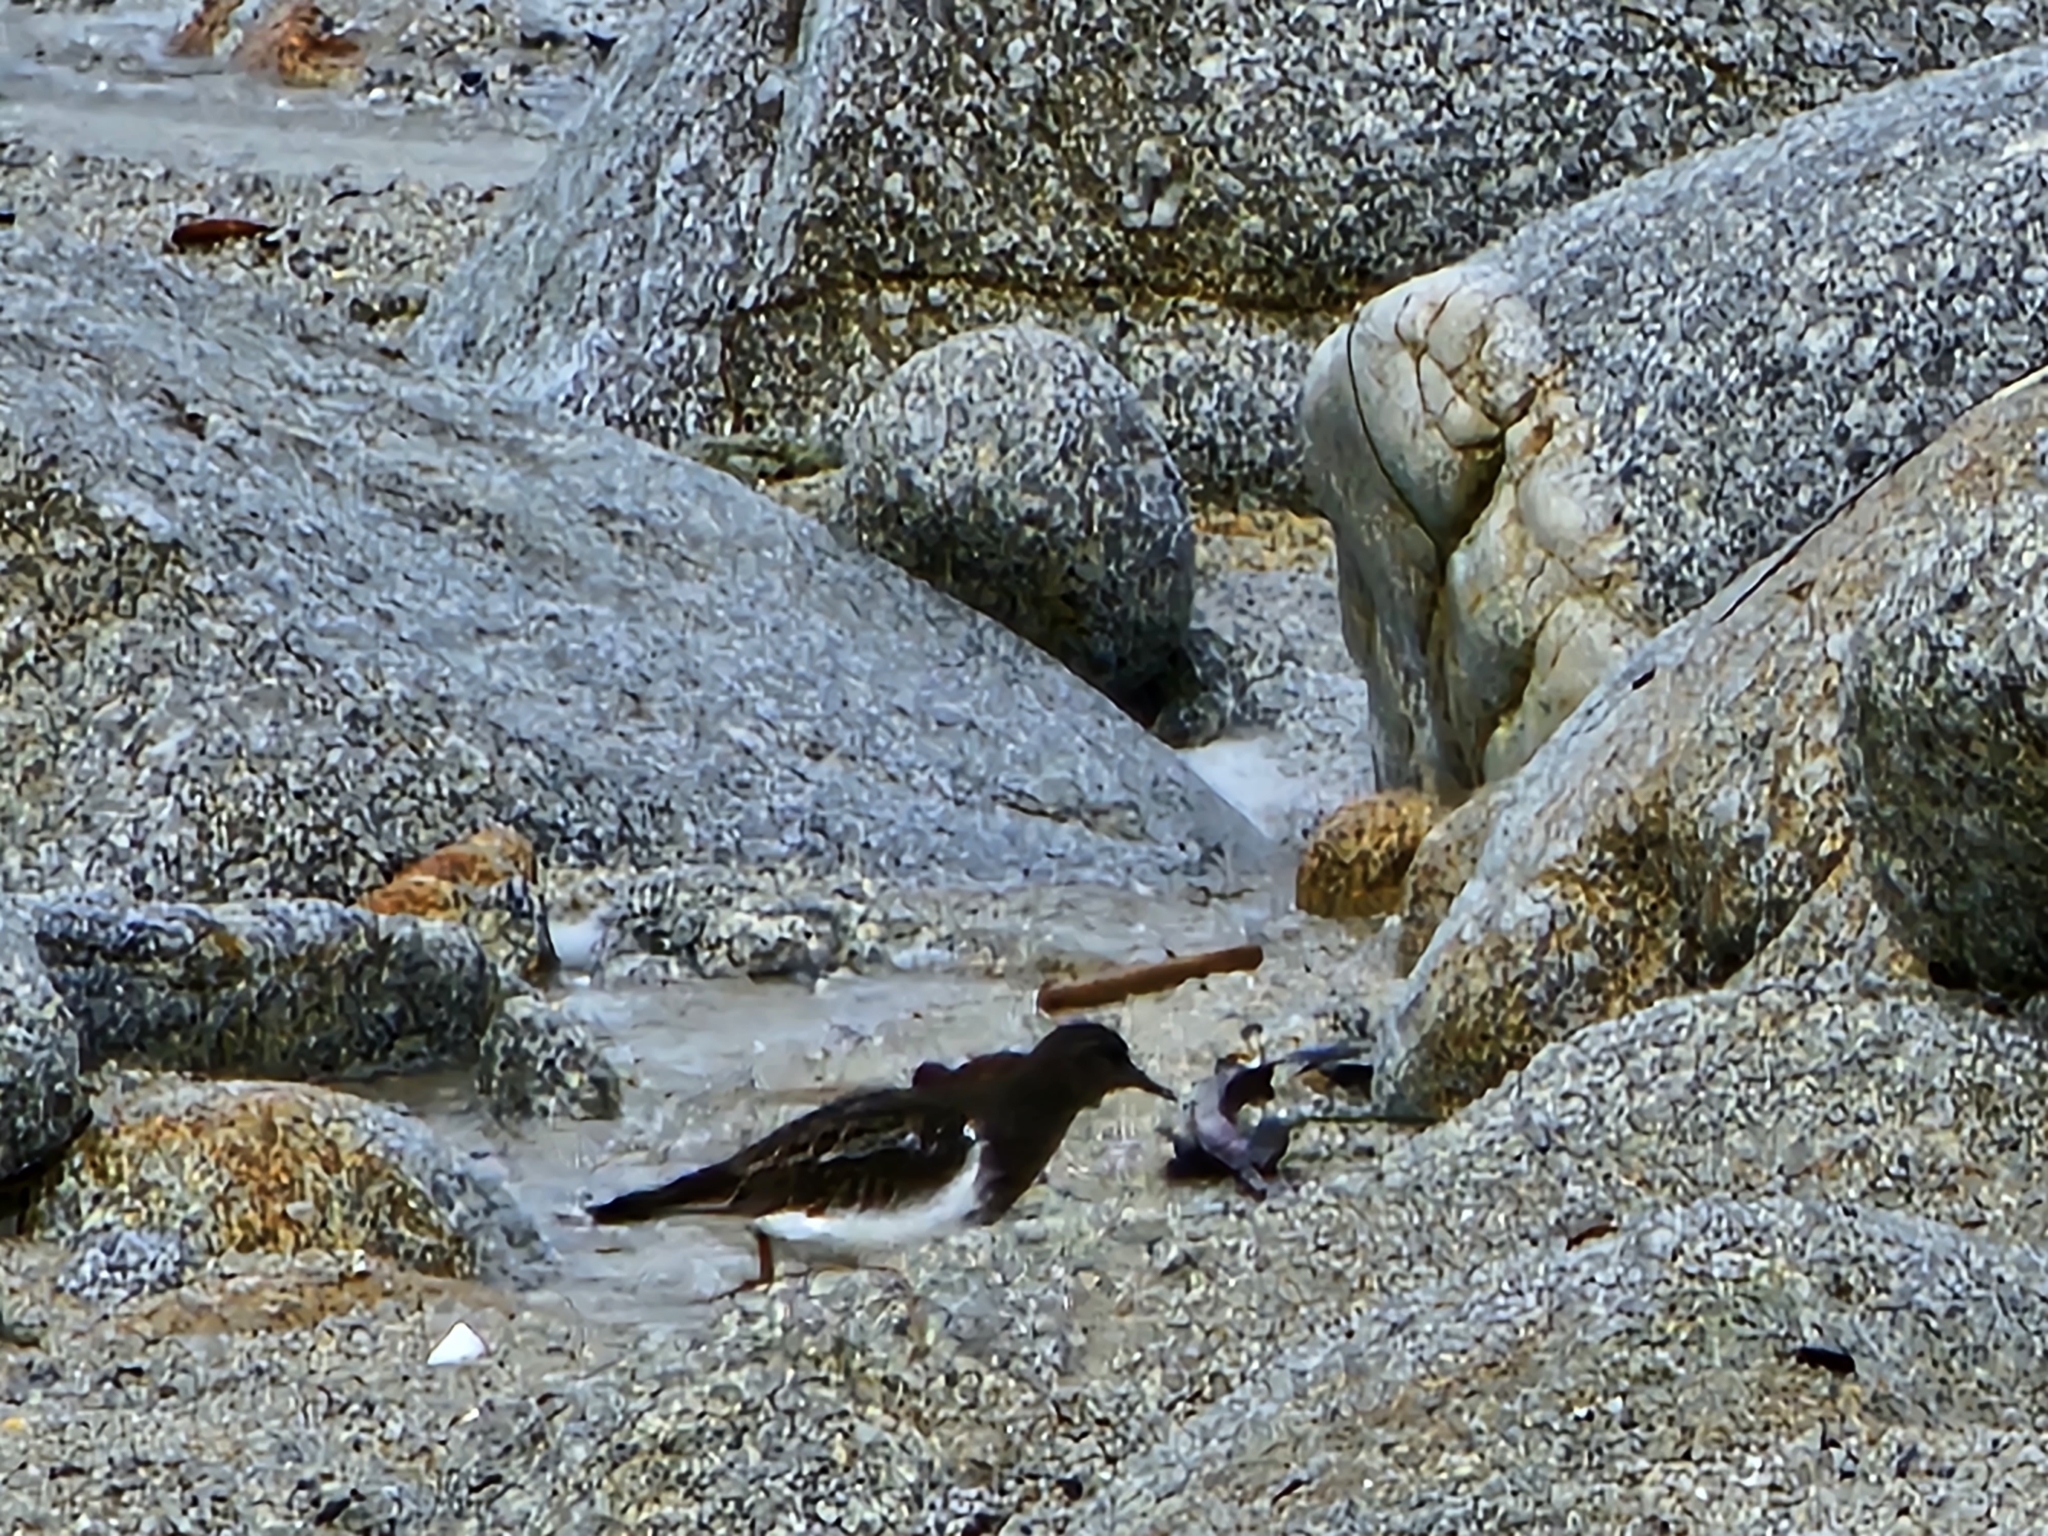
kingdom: Animalia
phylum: Chordata
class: Aves
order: Charadriiformes
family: Scolopacidae
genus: Arenaria
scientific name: Arenaria melanocephala
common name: Black turnstone
